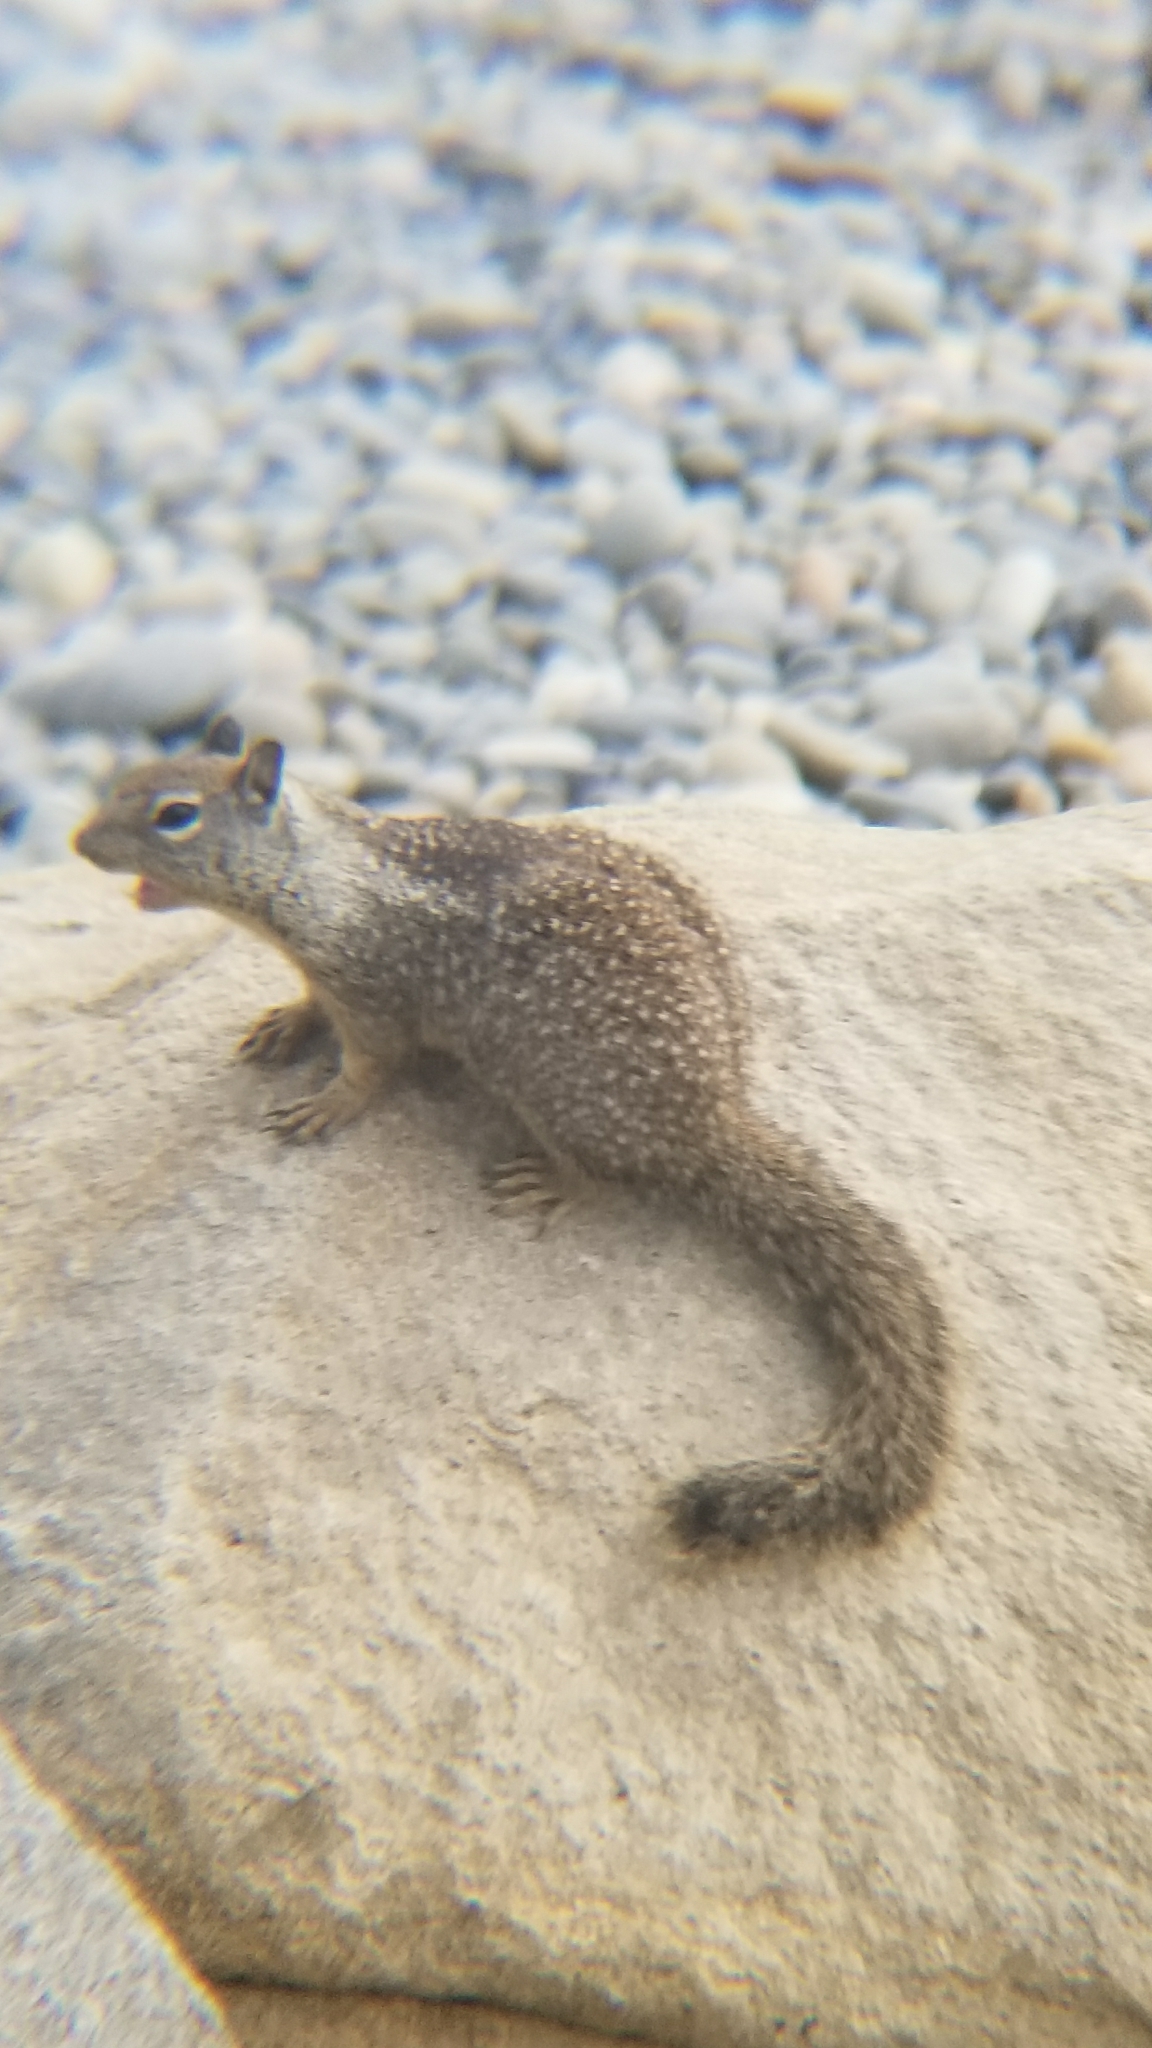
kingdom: Animalia
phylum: Chordata
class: Mammalia
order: Rodentia
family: Sciuridae
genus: Otospermophilus
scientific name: Otospermophilus beecheyi
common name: California ground squirrel
